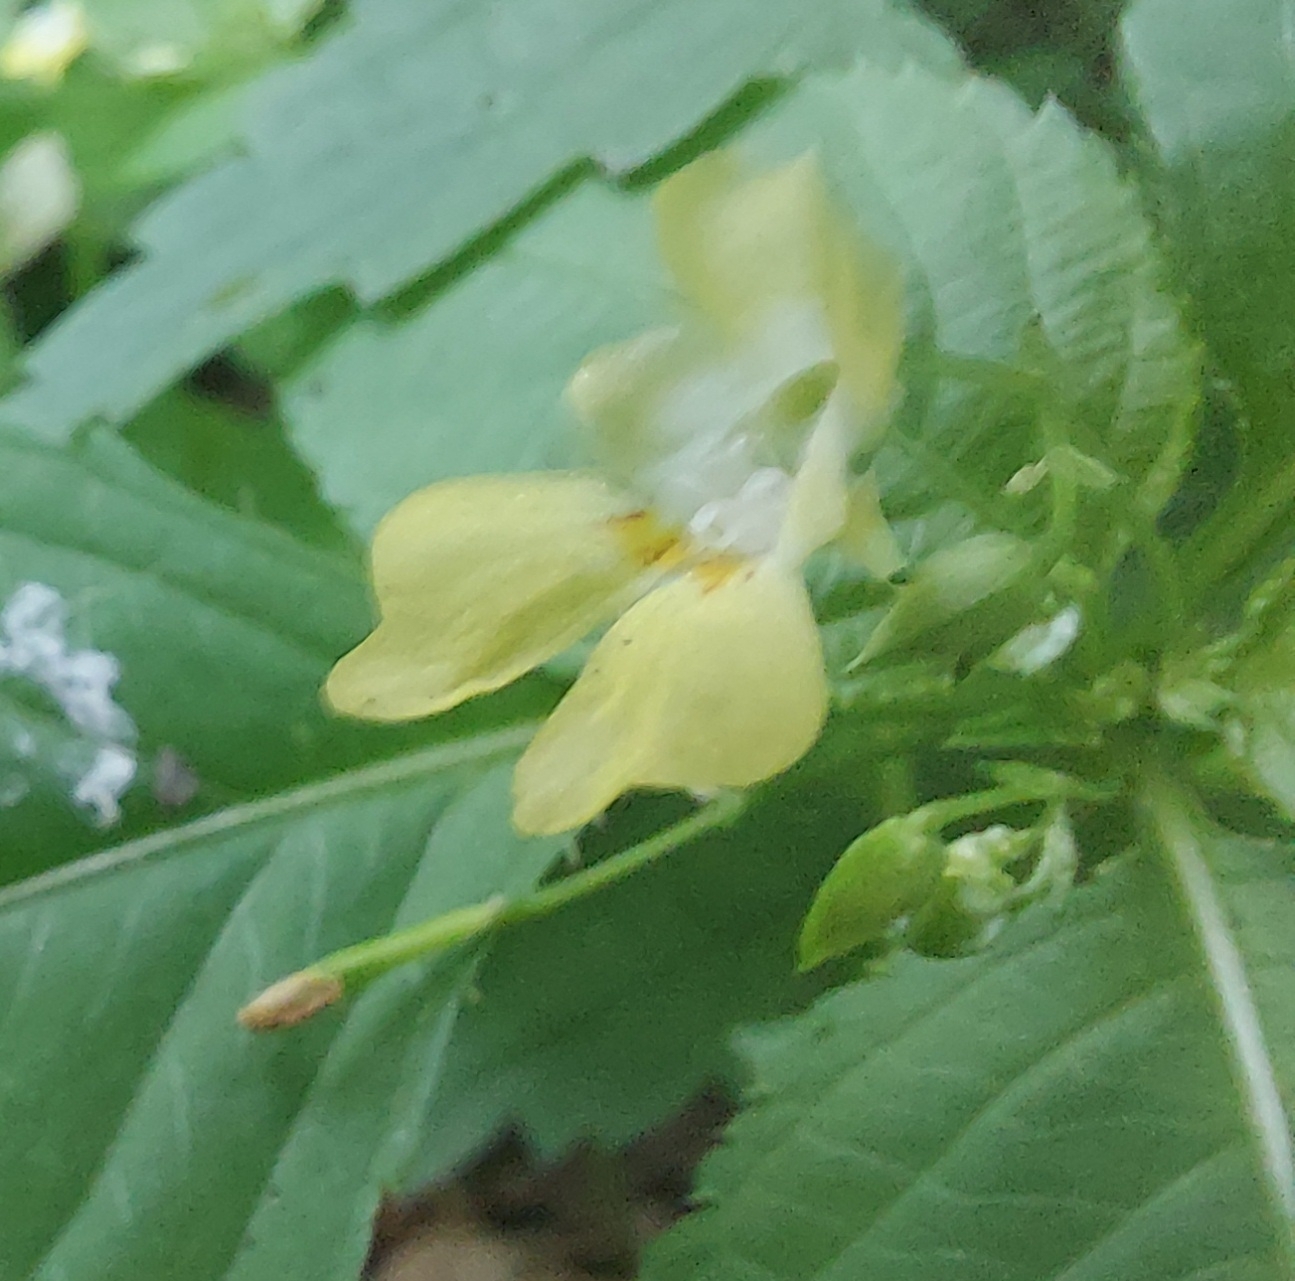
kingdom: Plantae
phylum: Tracheophyta
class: Magnoliopsida
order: Ericales
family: Balsaminaceae
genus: Impatiens
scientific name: Impatiens parviflora
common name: Small balsam
